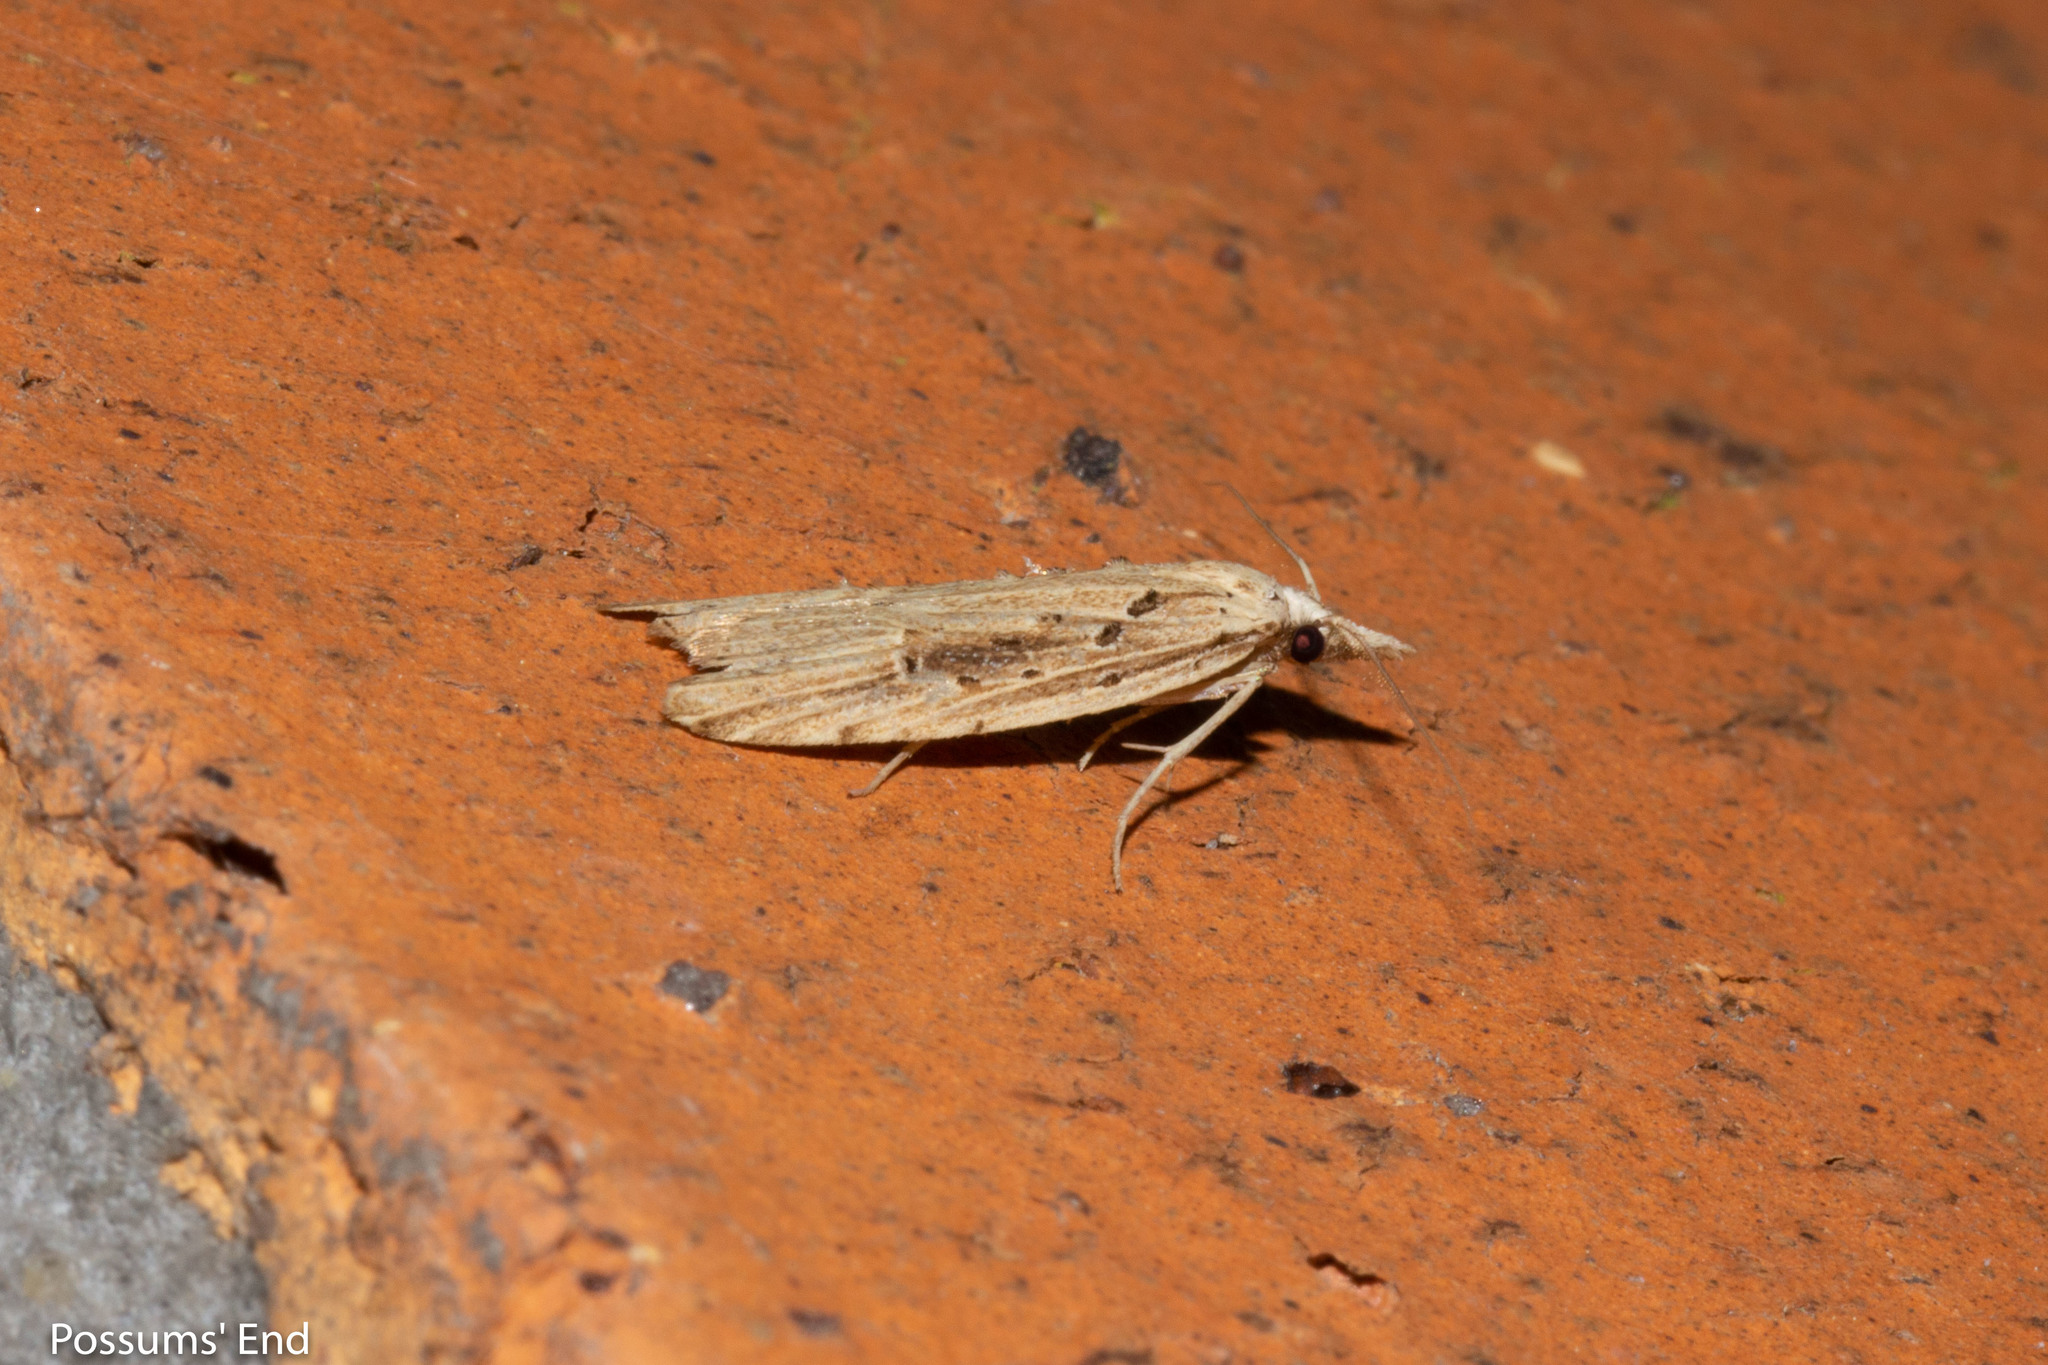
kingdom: Animalia
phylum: Arthropoda
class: Insecta
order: Lepidoptera
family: Carposinidae
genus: Carposina
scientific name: Carposina Heterocrossa exochana
